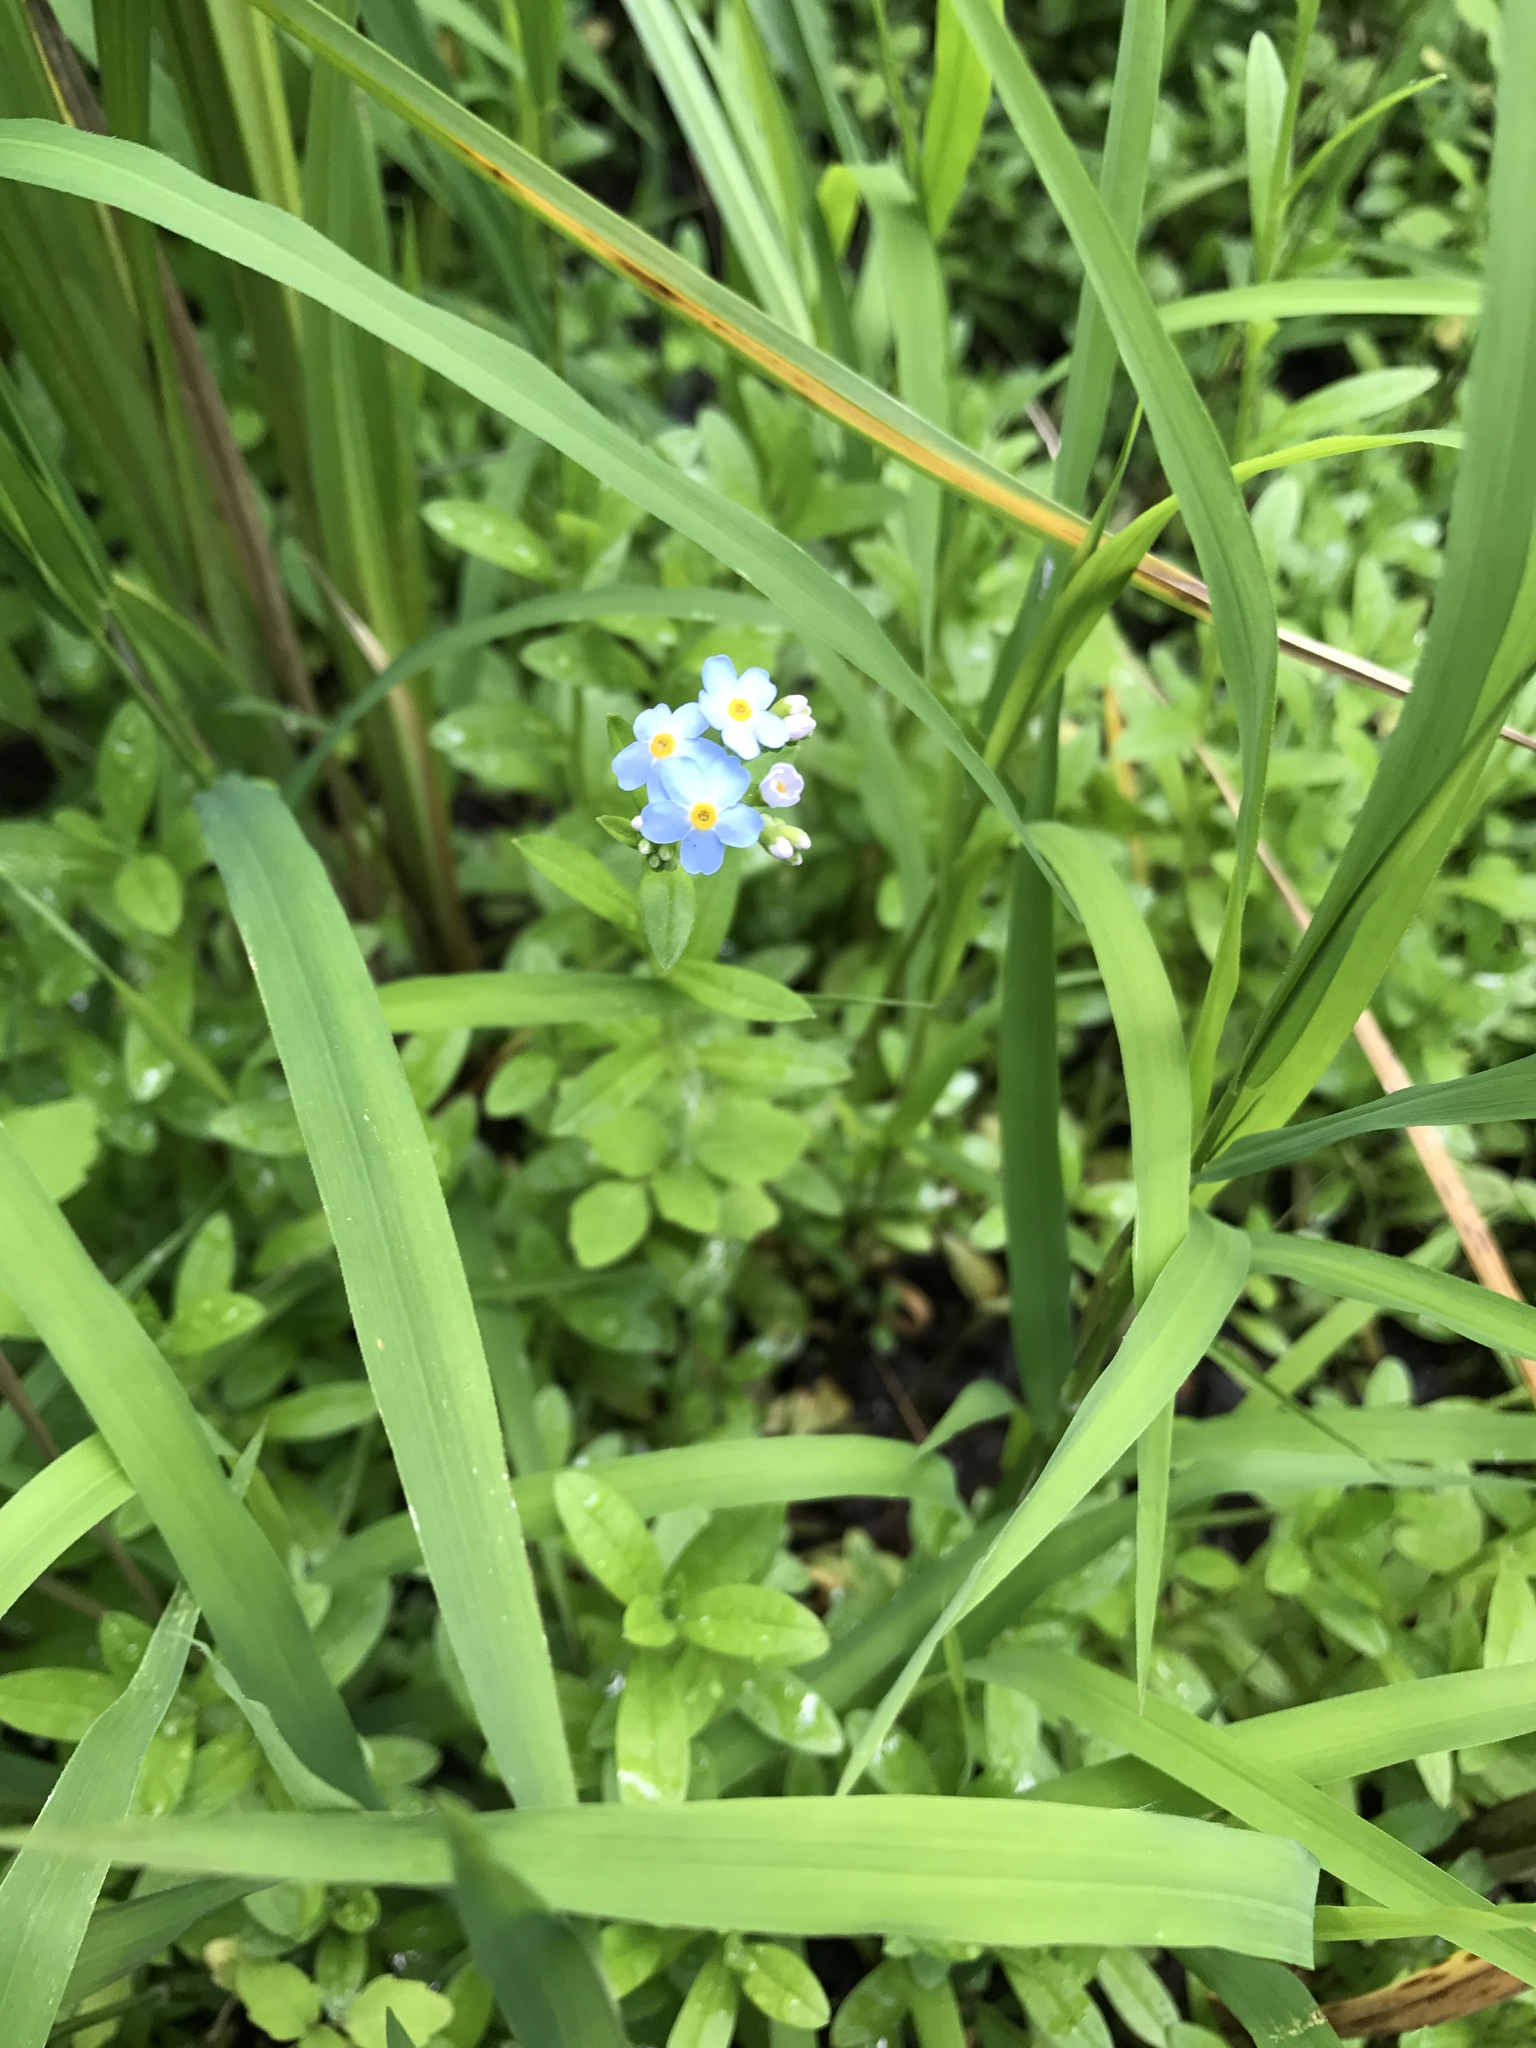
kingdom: Plantae
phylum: Tracheophyta
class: Magnoliopsida
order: Boraginales
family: Boraginaceae
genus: Myosotis
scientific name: Myosotis scorpioides
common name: Water forget-me-not
